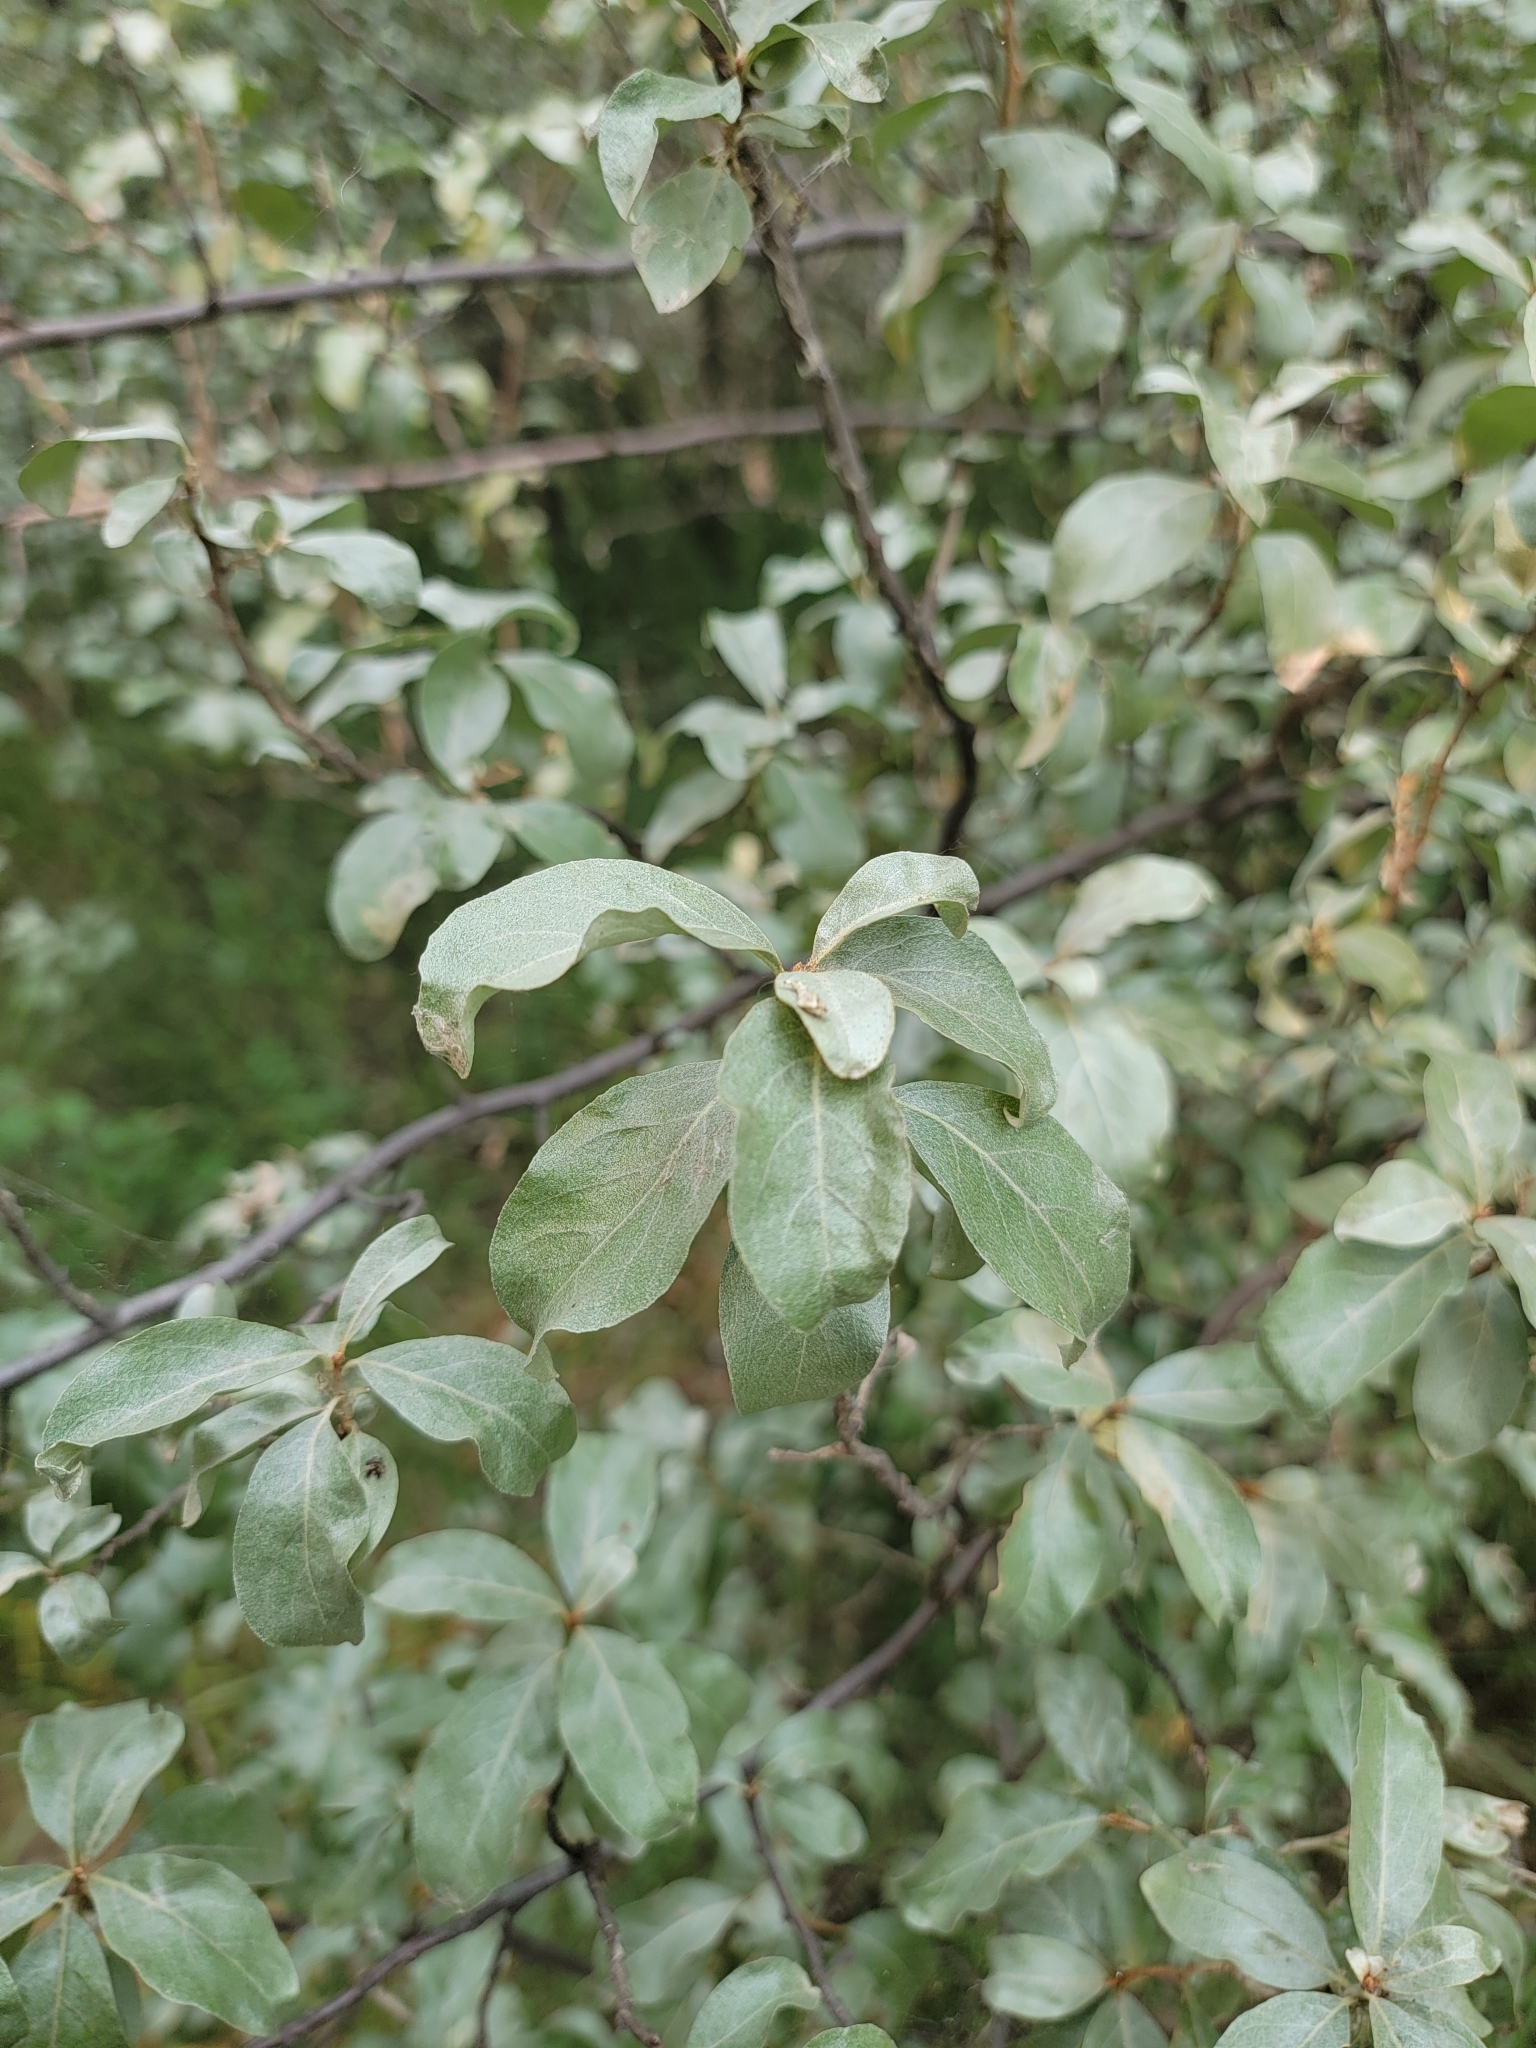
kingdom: Plantae
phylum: Tracheophyta
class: Magnoliopsida
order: Rosales
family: Elaeagnaceae
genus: Elaeagnus
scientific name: Elaeagnus commutata
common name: Silverberry
